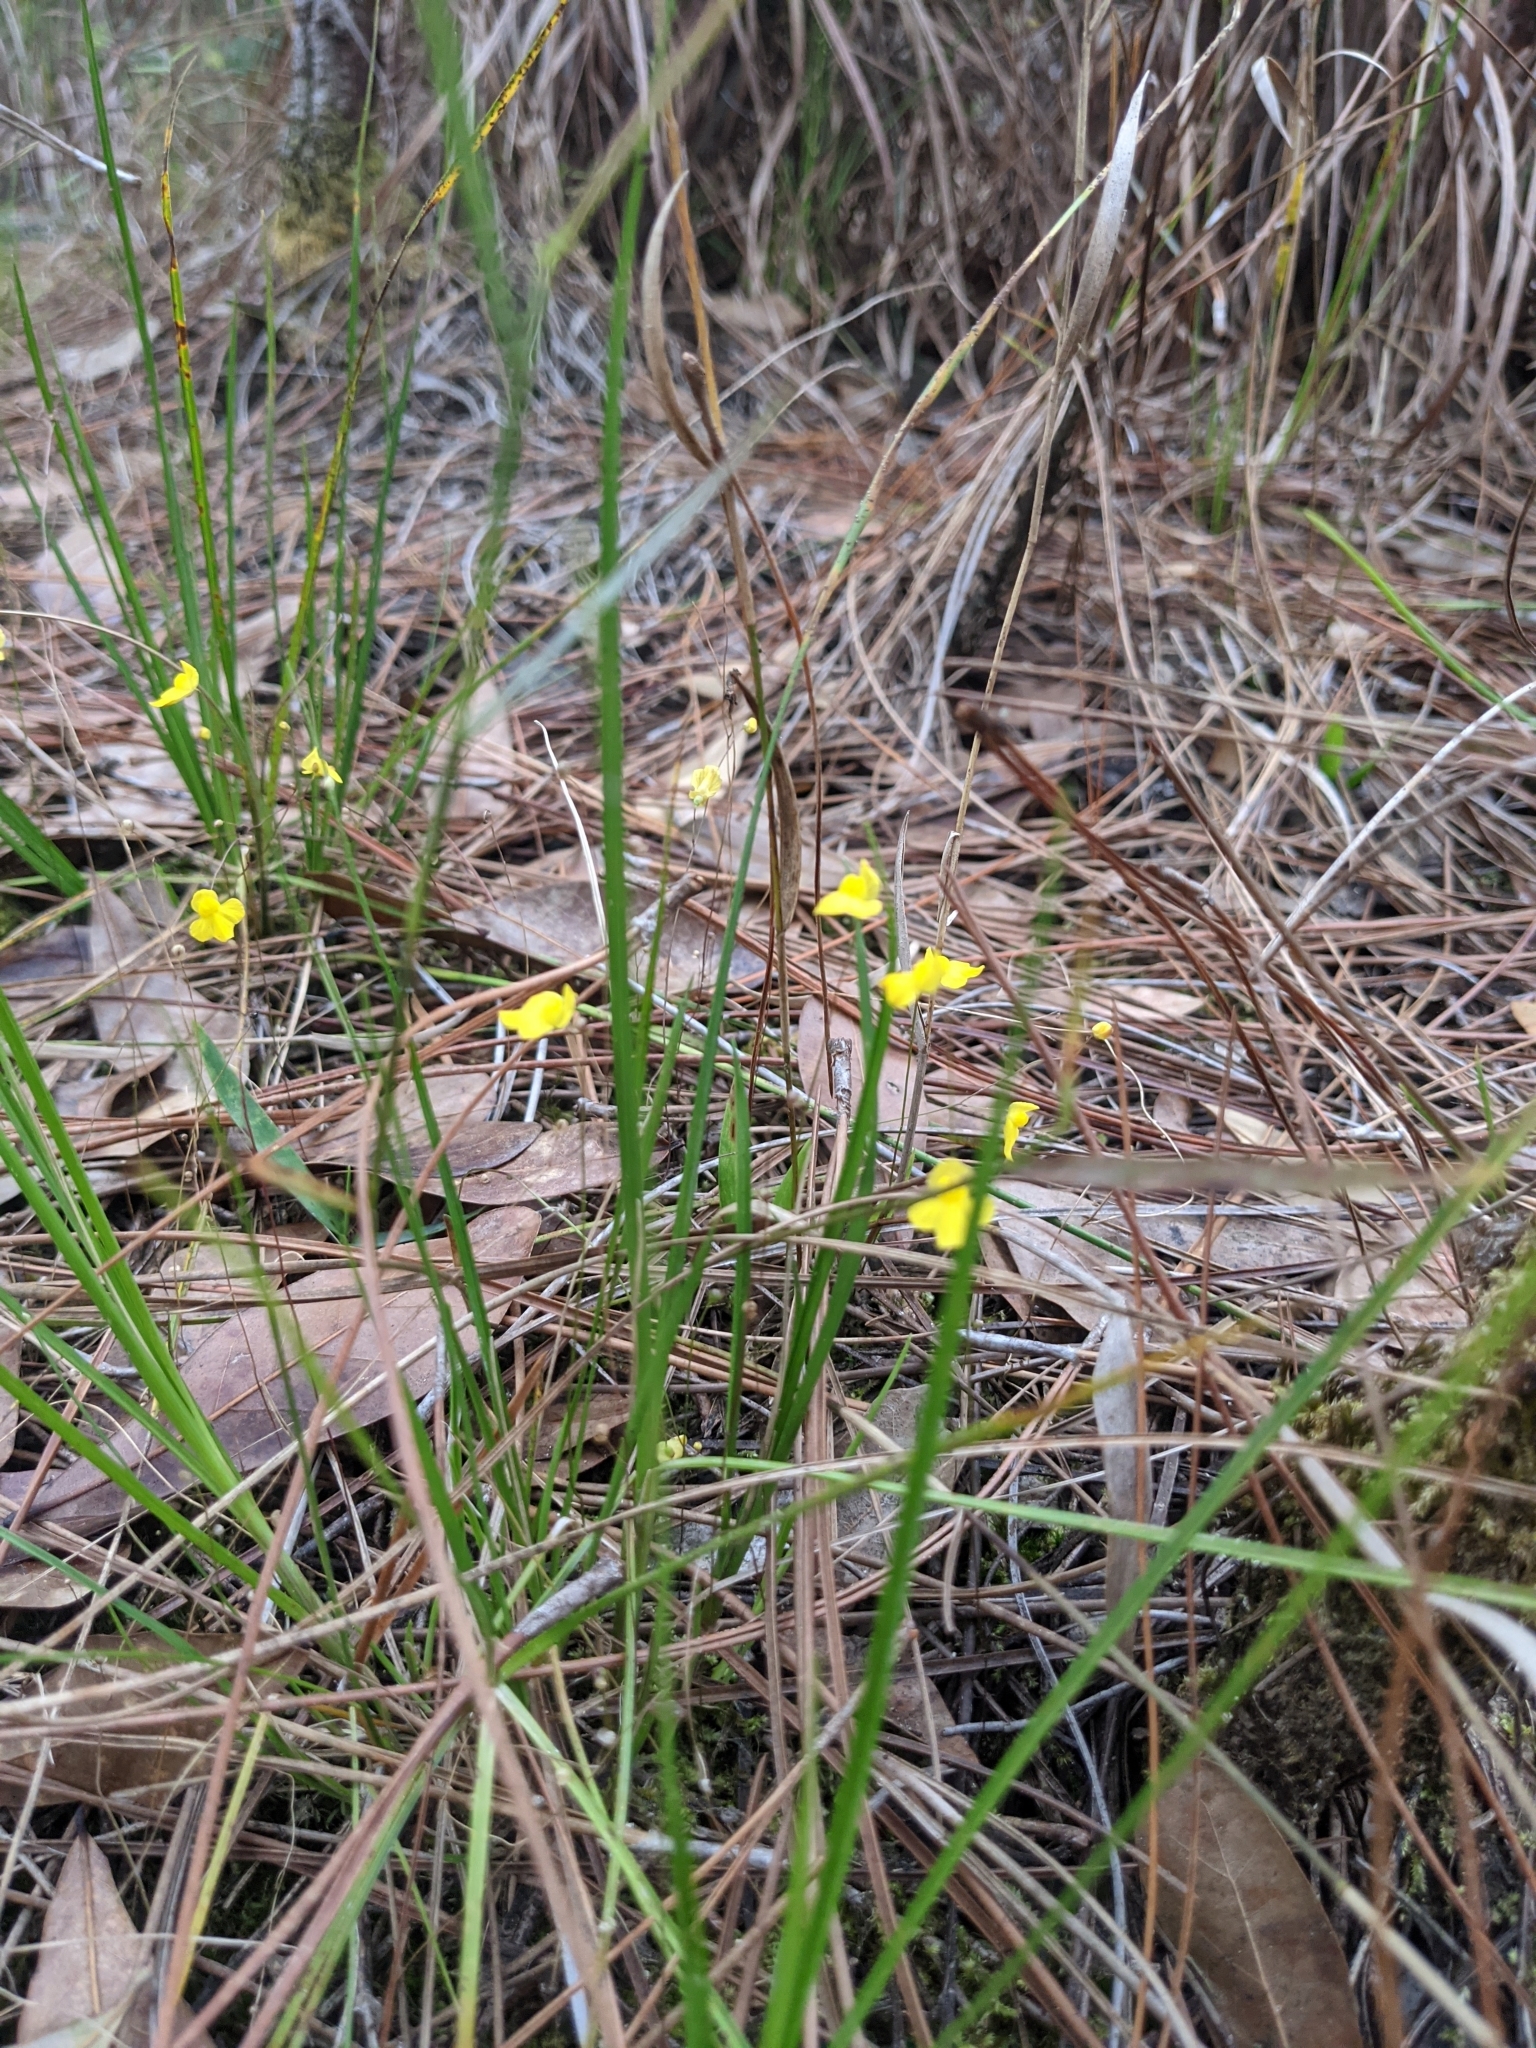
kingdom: Plantae
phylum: Tracheophyta
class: Magnoliopsida
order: Lamiales
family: Lentibulariaceae
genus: Utricularia
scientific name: Utricularia subulata
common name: Tiny bladderwort
